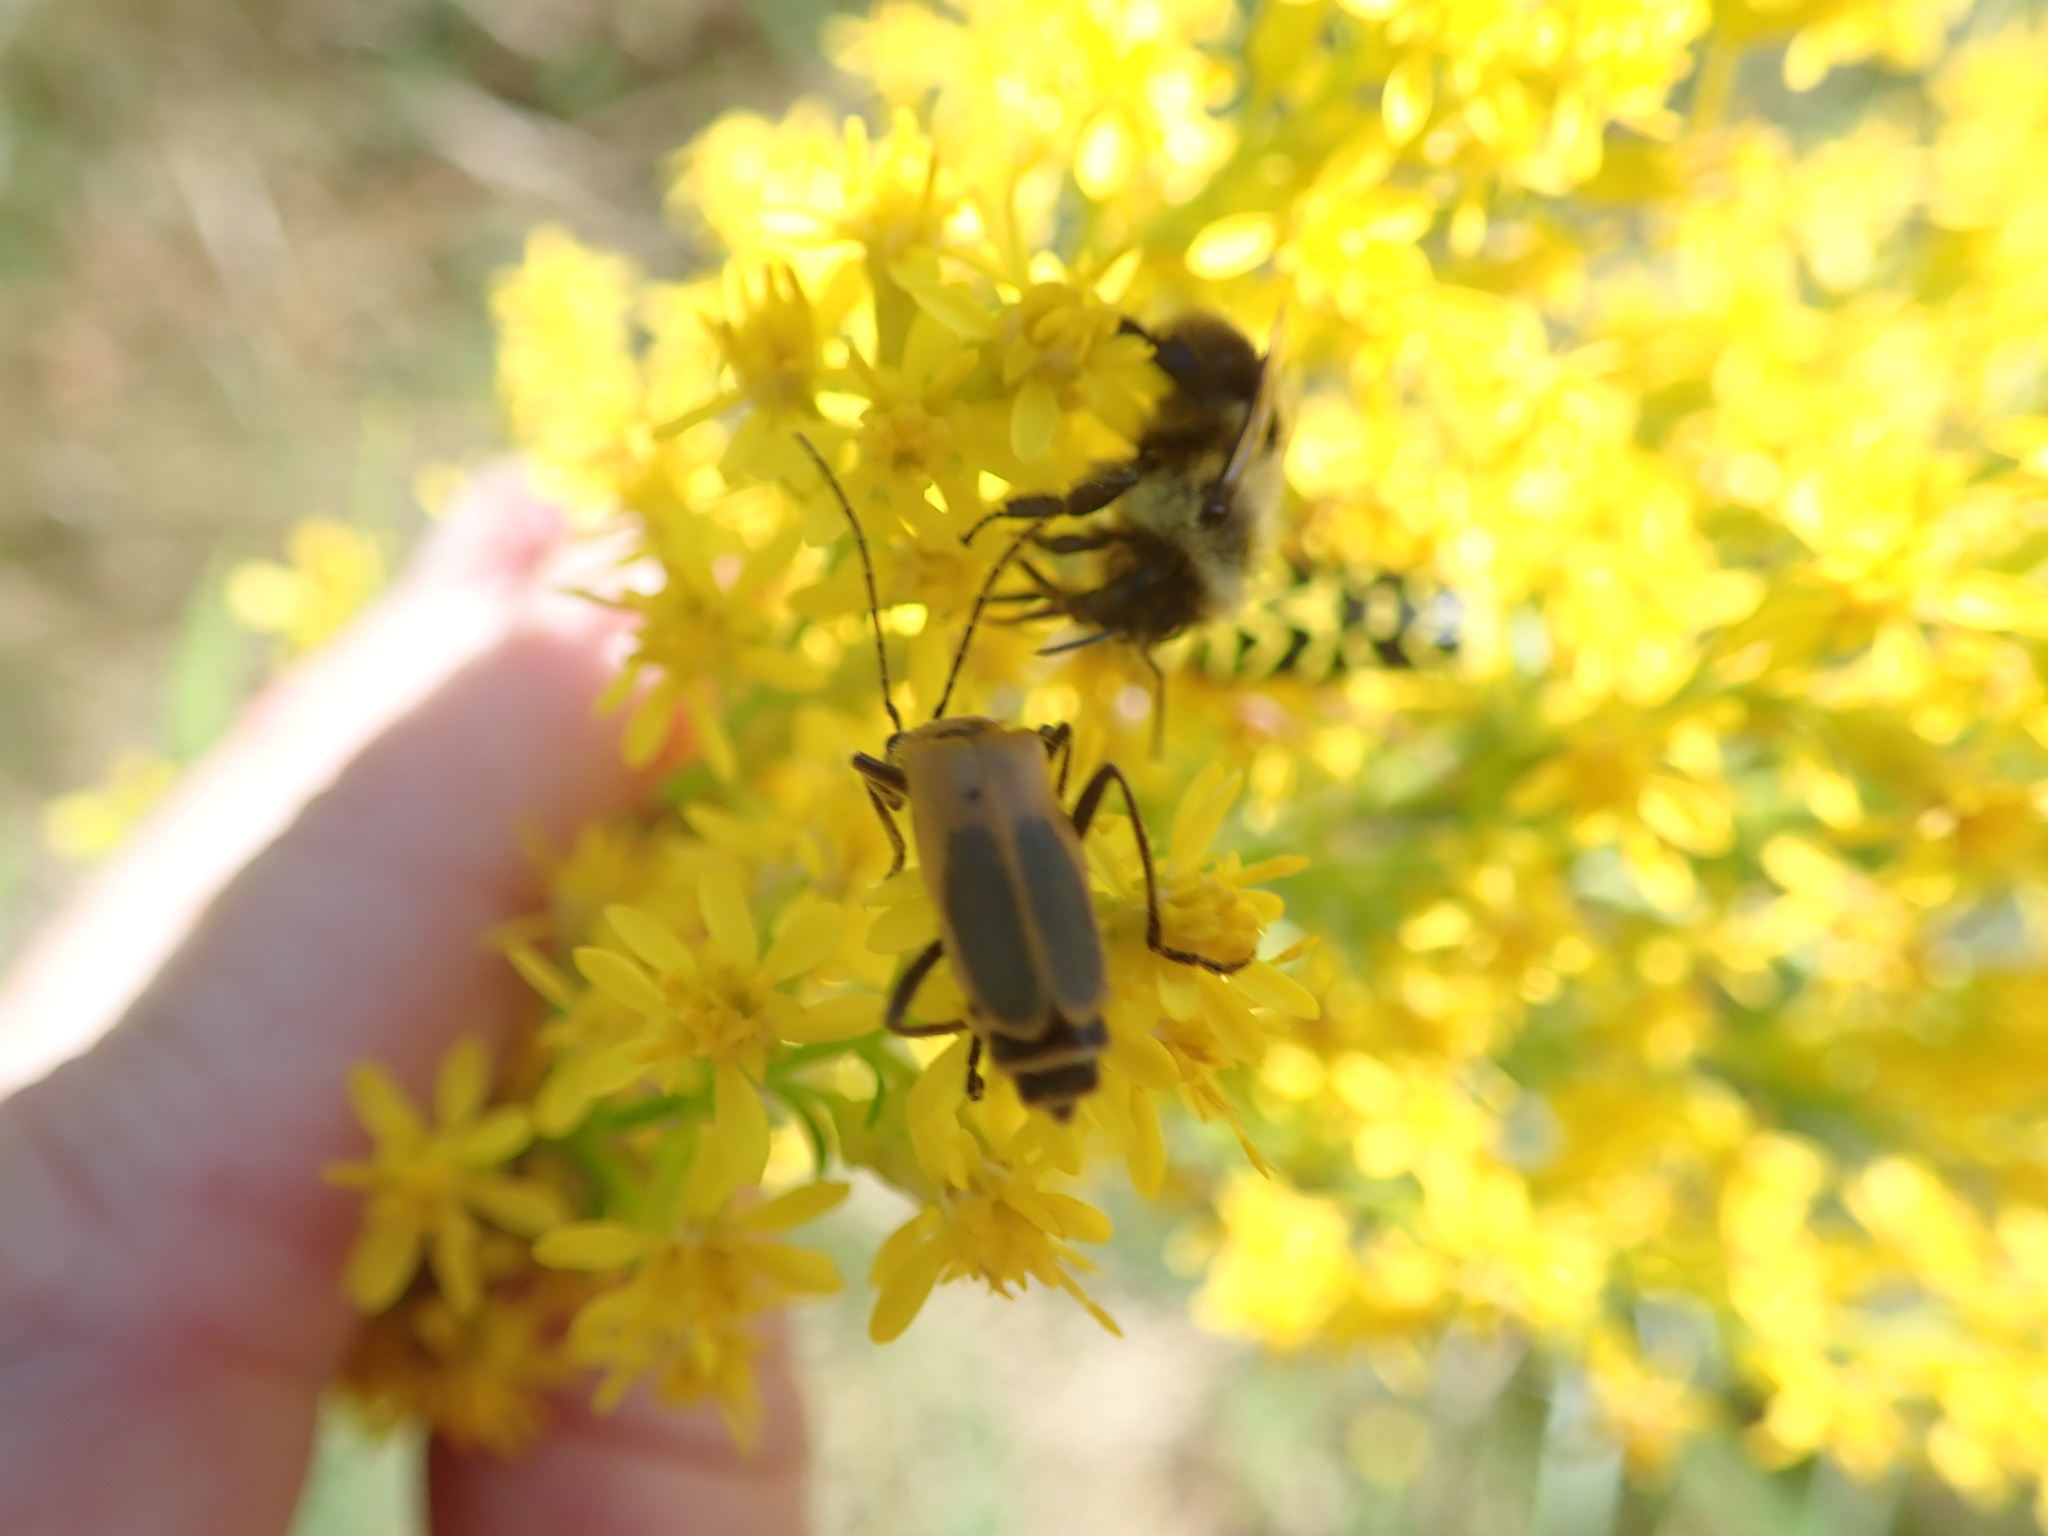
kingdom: Animalia
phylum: Arthropoda
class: Insecta
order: Coleoptera
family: Cantharidae
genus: Chauliognathus
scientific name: Chauliognathus pensylvanicus
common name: Goldenrod soldier beetle
